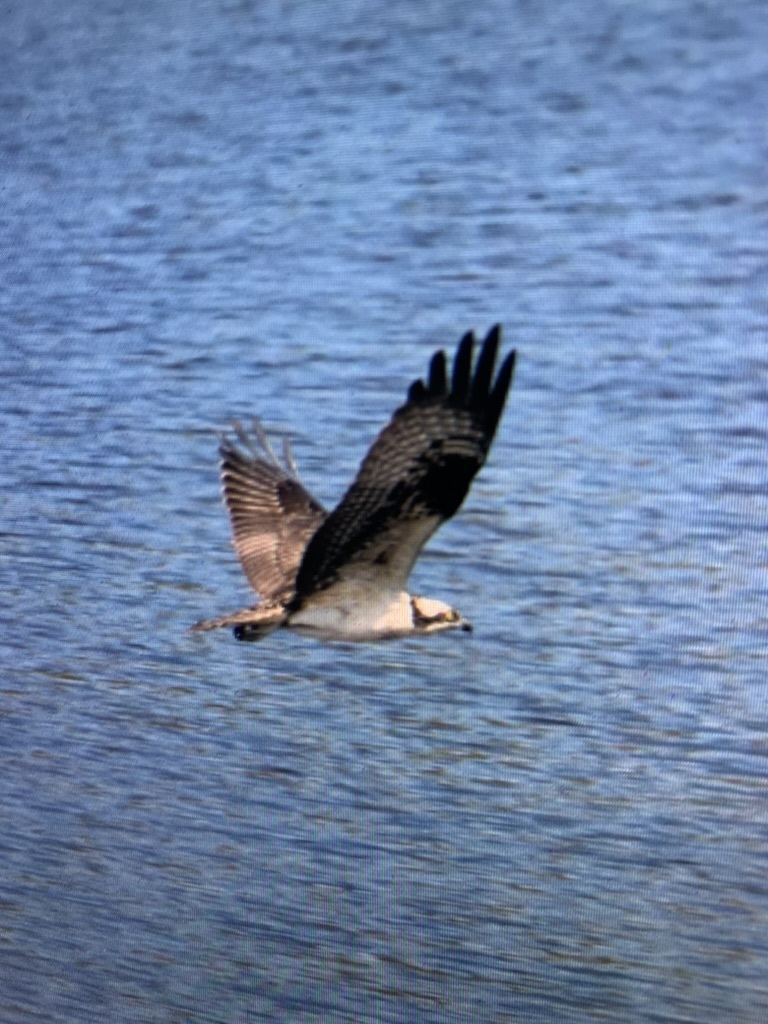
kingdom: Animalia
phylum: Chordata
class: Aves
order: Accipitriformes
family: Pandionidae
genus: Pandion
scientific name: Pandion haliaetus
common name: Osprey
